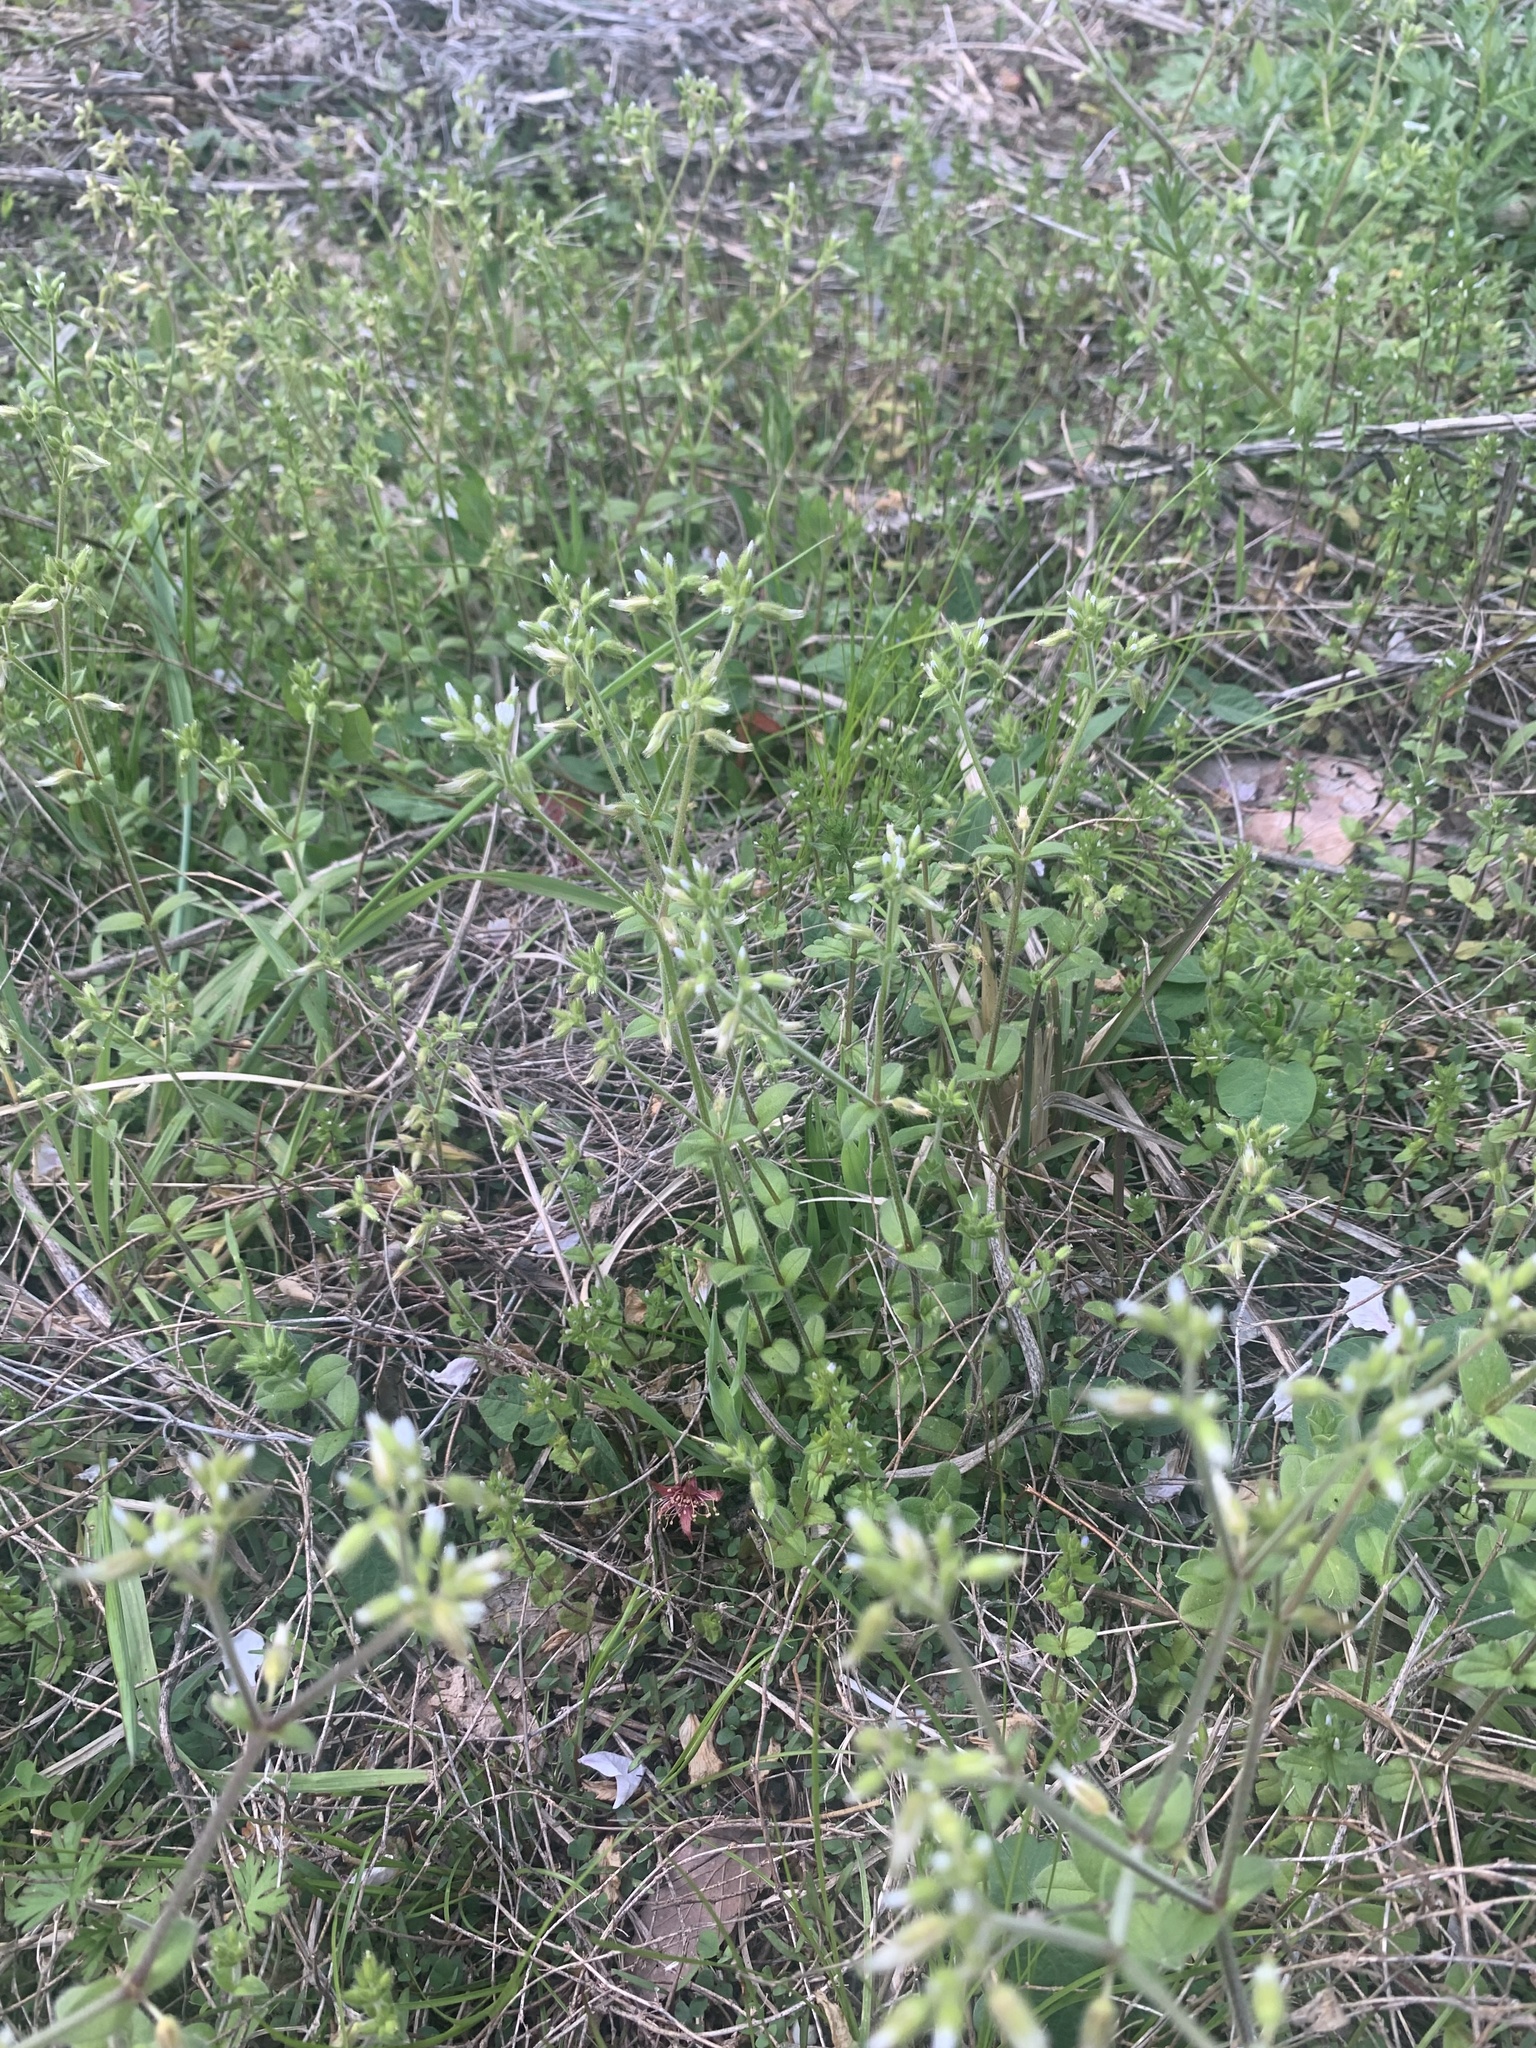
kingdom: Plantae
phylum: Tracheophyta
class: Magnoliopsida
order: Caryophyllales
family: Caryophyllaceae
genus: Cerastium
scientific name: Cerastium glomeratum
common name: Sticky chickweed
